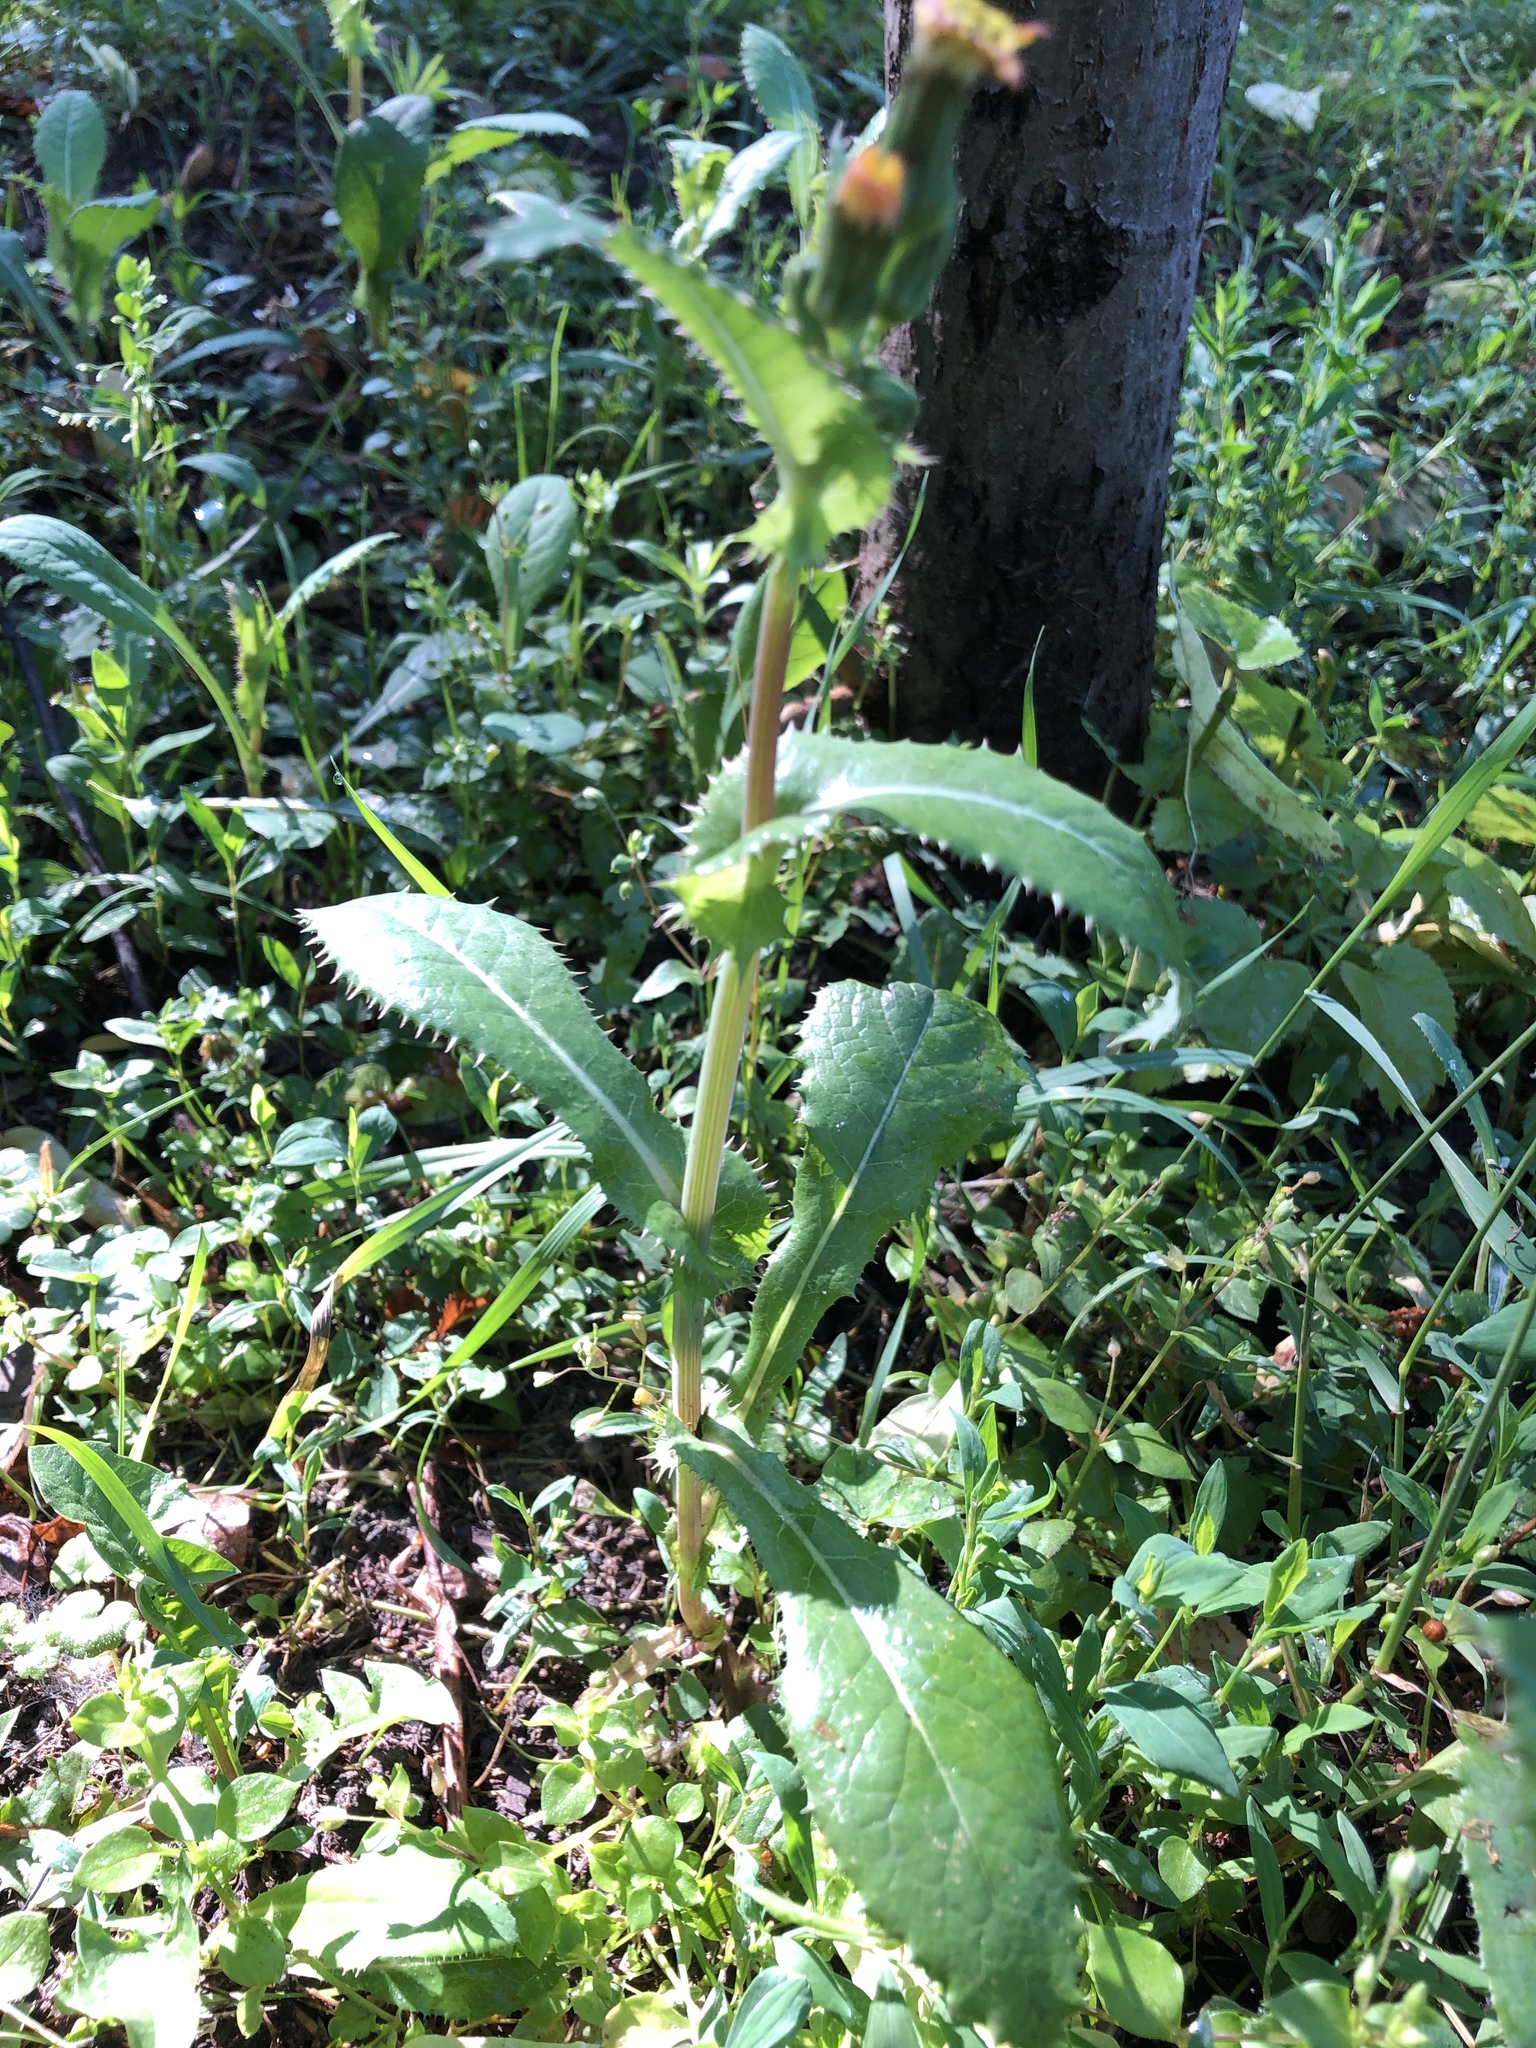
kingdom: Plantae
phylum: Tracheophyta
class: Magnoliopsida
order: Asterales
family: Asteraceae
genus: Sonchus
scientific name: Sonchus asper
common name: Prickly sow-thistle
